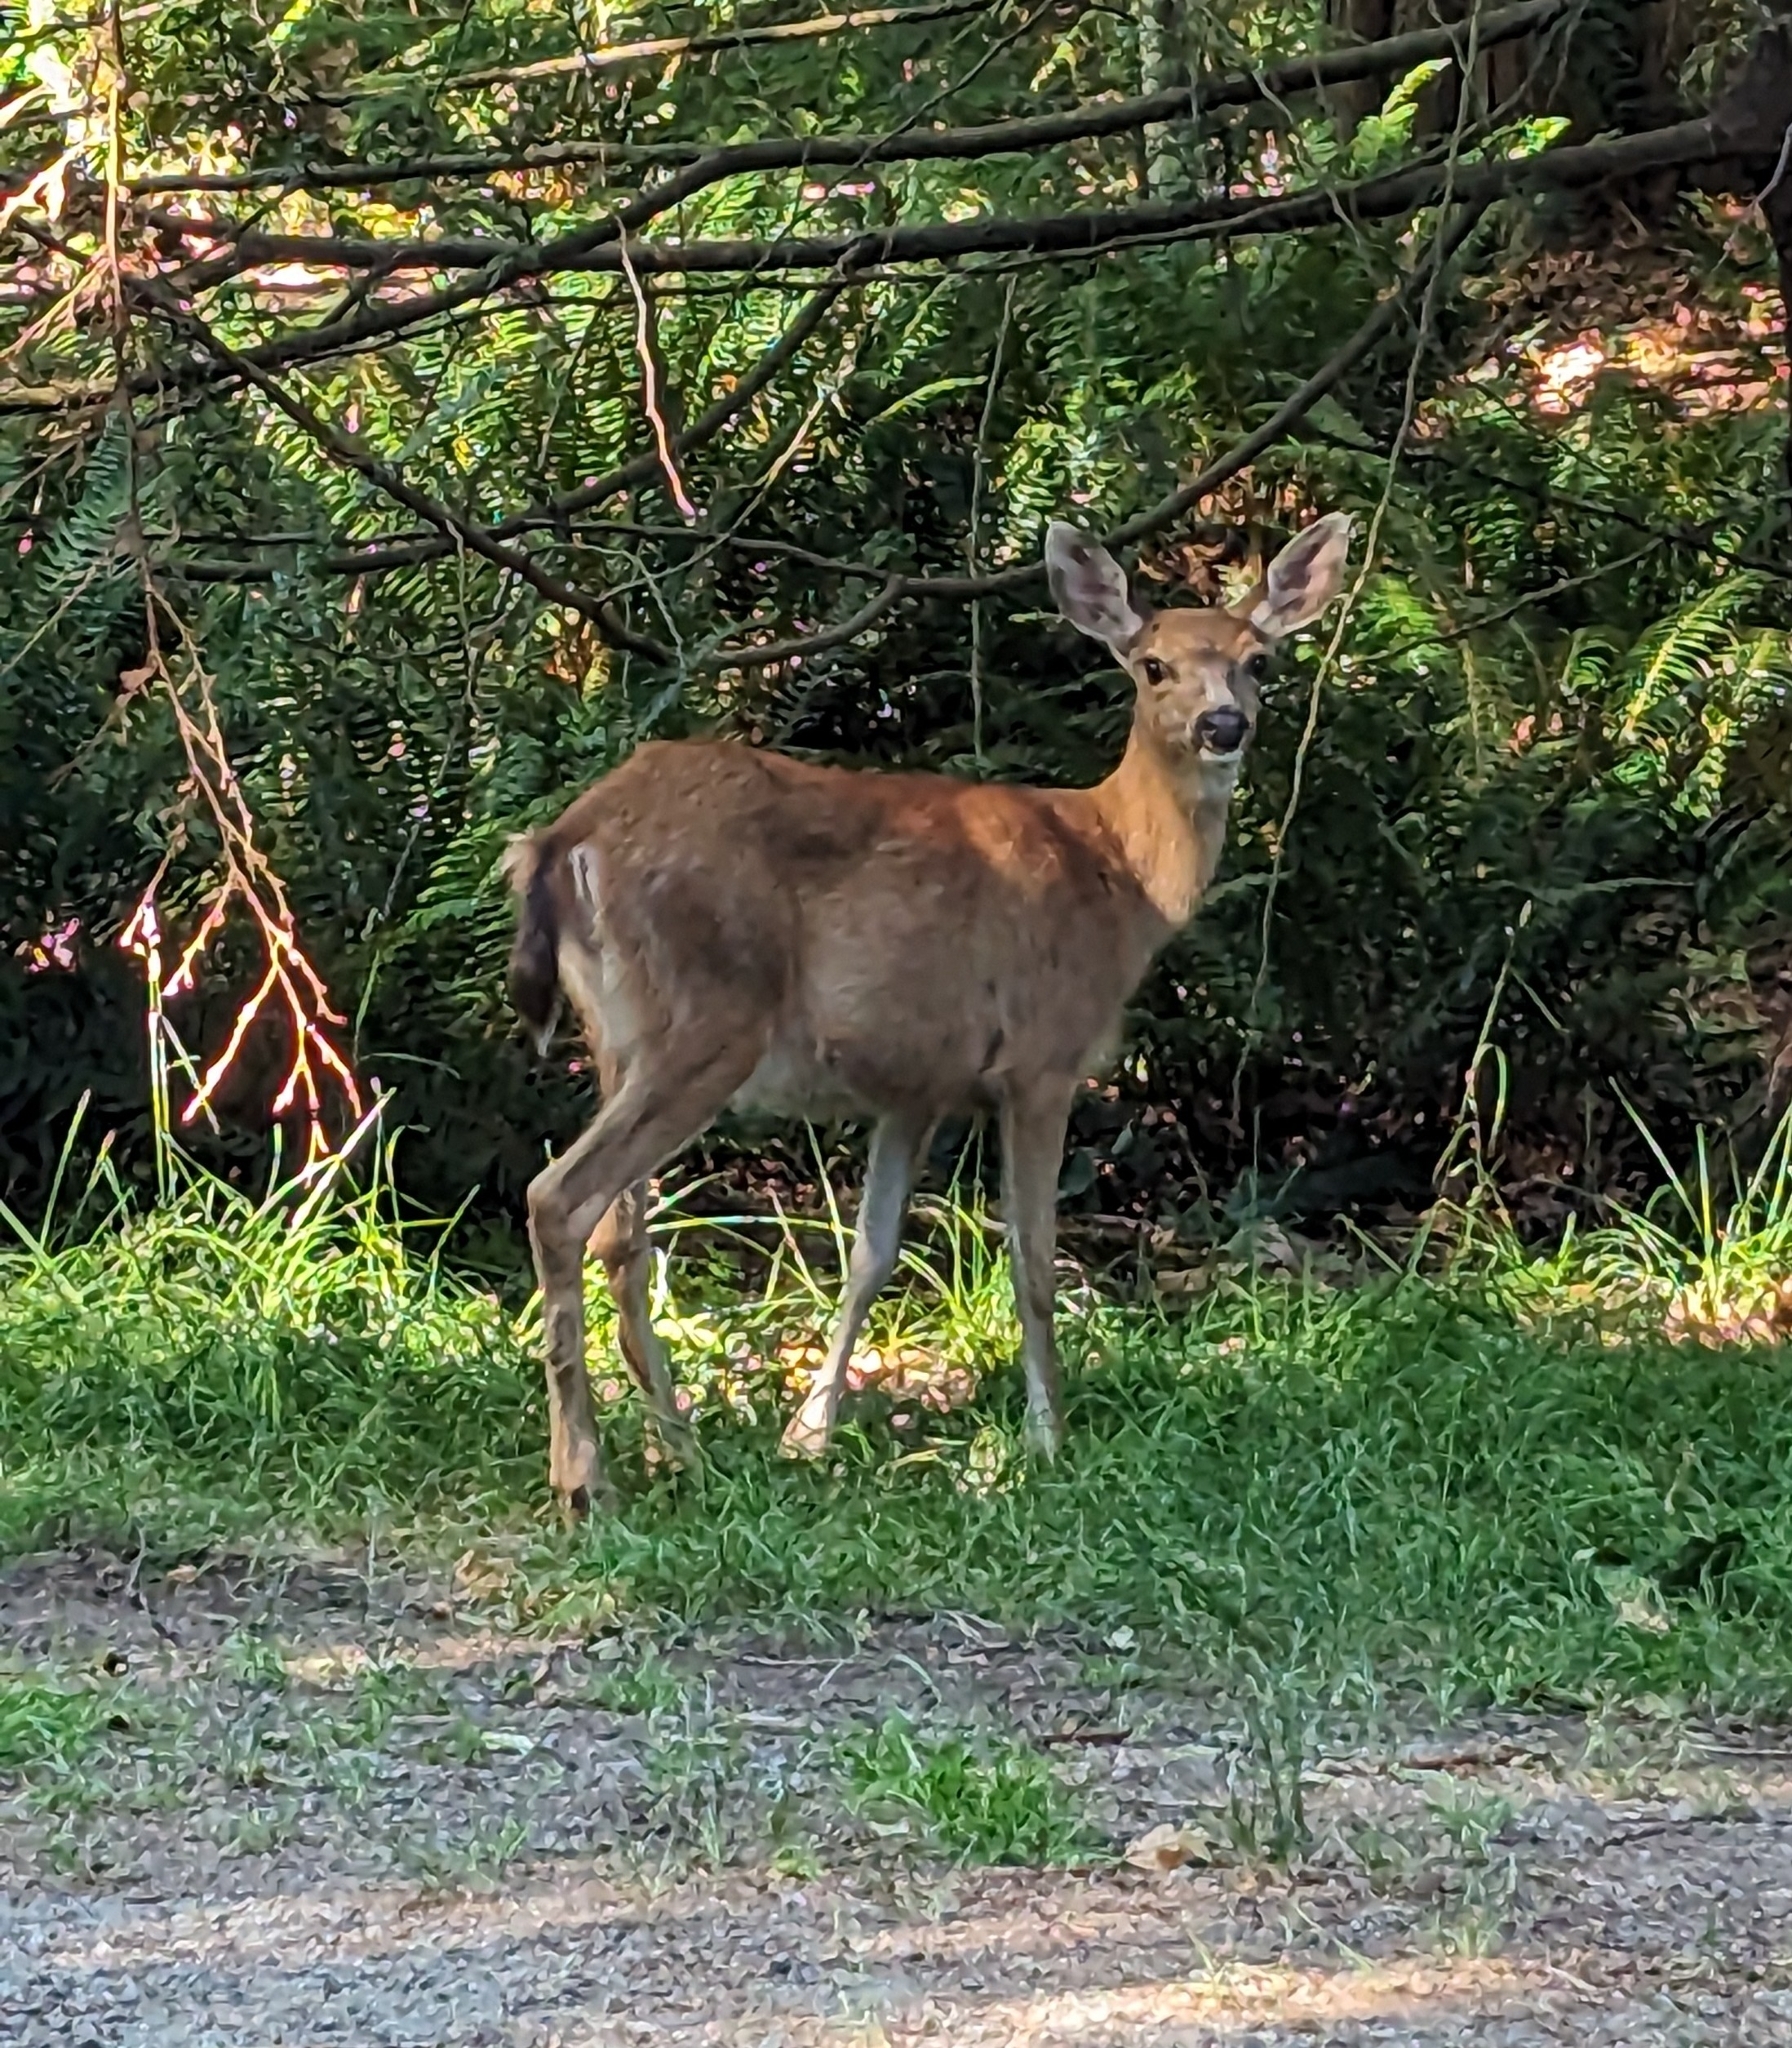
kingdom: Animalia
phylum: Chordata
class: Mammalia
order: Artiodactyla
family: Cervidae
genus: Odocoileus
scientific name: Odocoileus hemionus
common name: Mule deer
